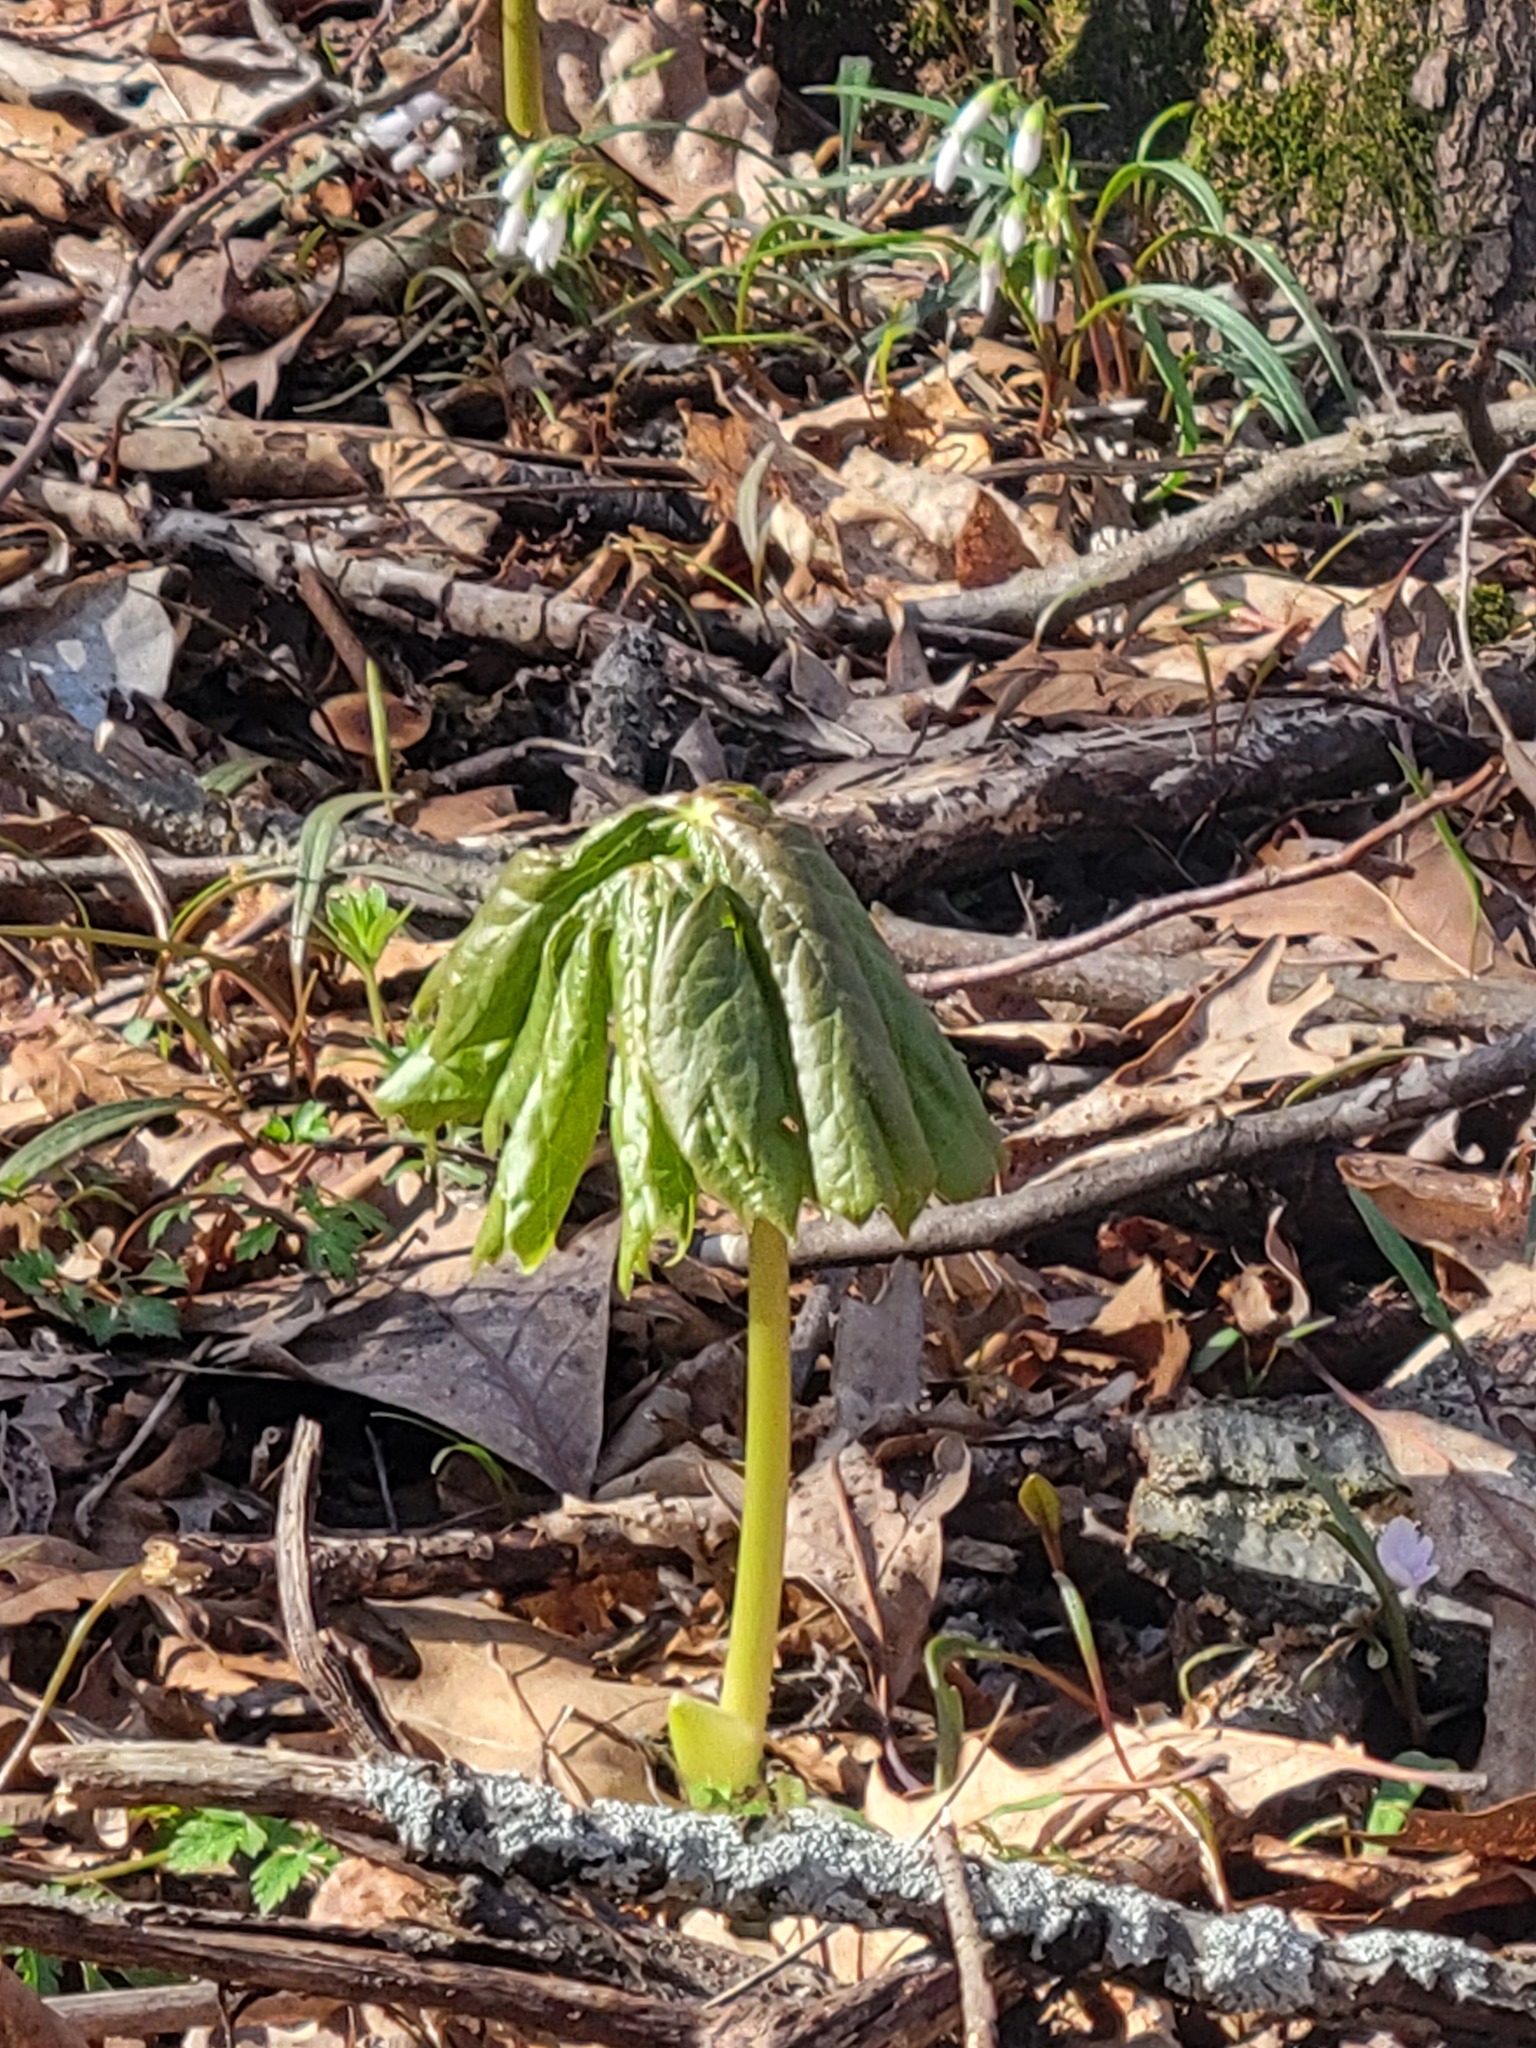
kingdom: Plantae
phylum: Tracheophyta
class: Magnoliopsida
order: Ranunculales
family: Berberidaceae
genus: Podophyllum
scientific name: Podophyllum peltatum
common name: Wild mandrake
